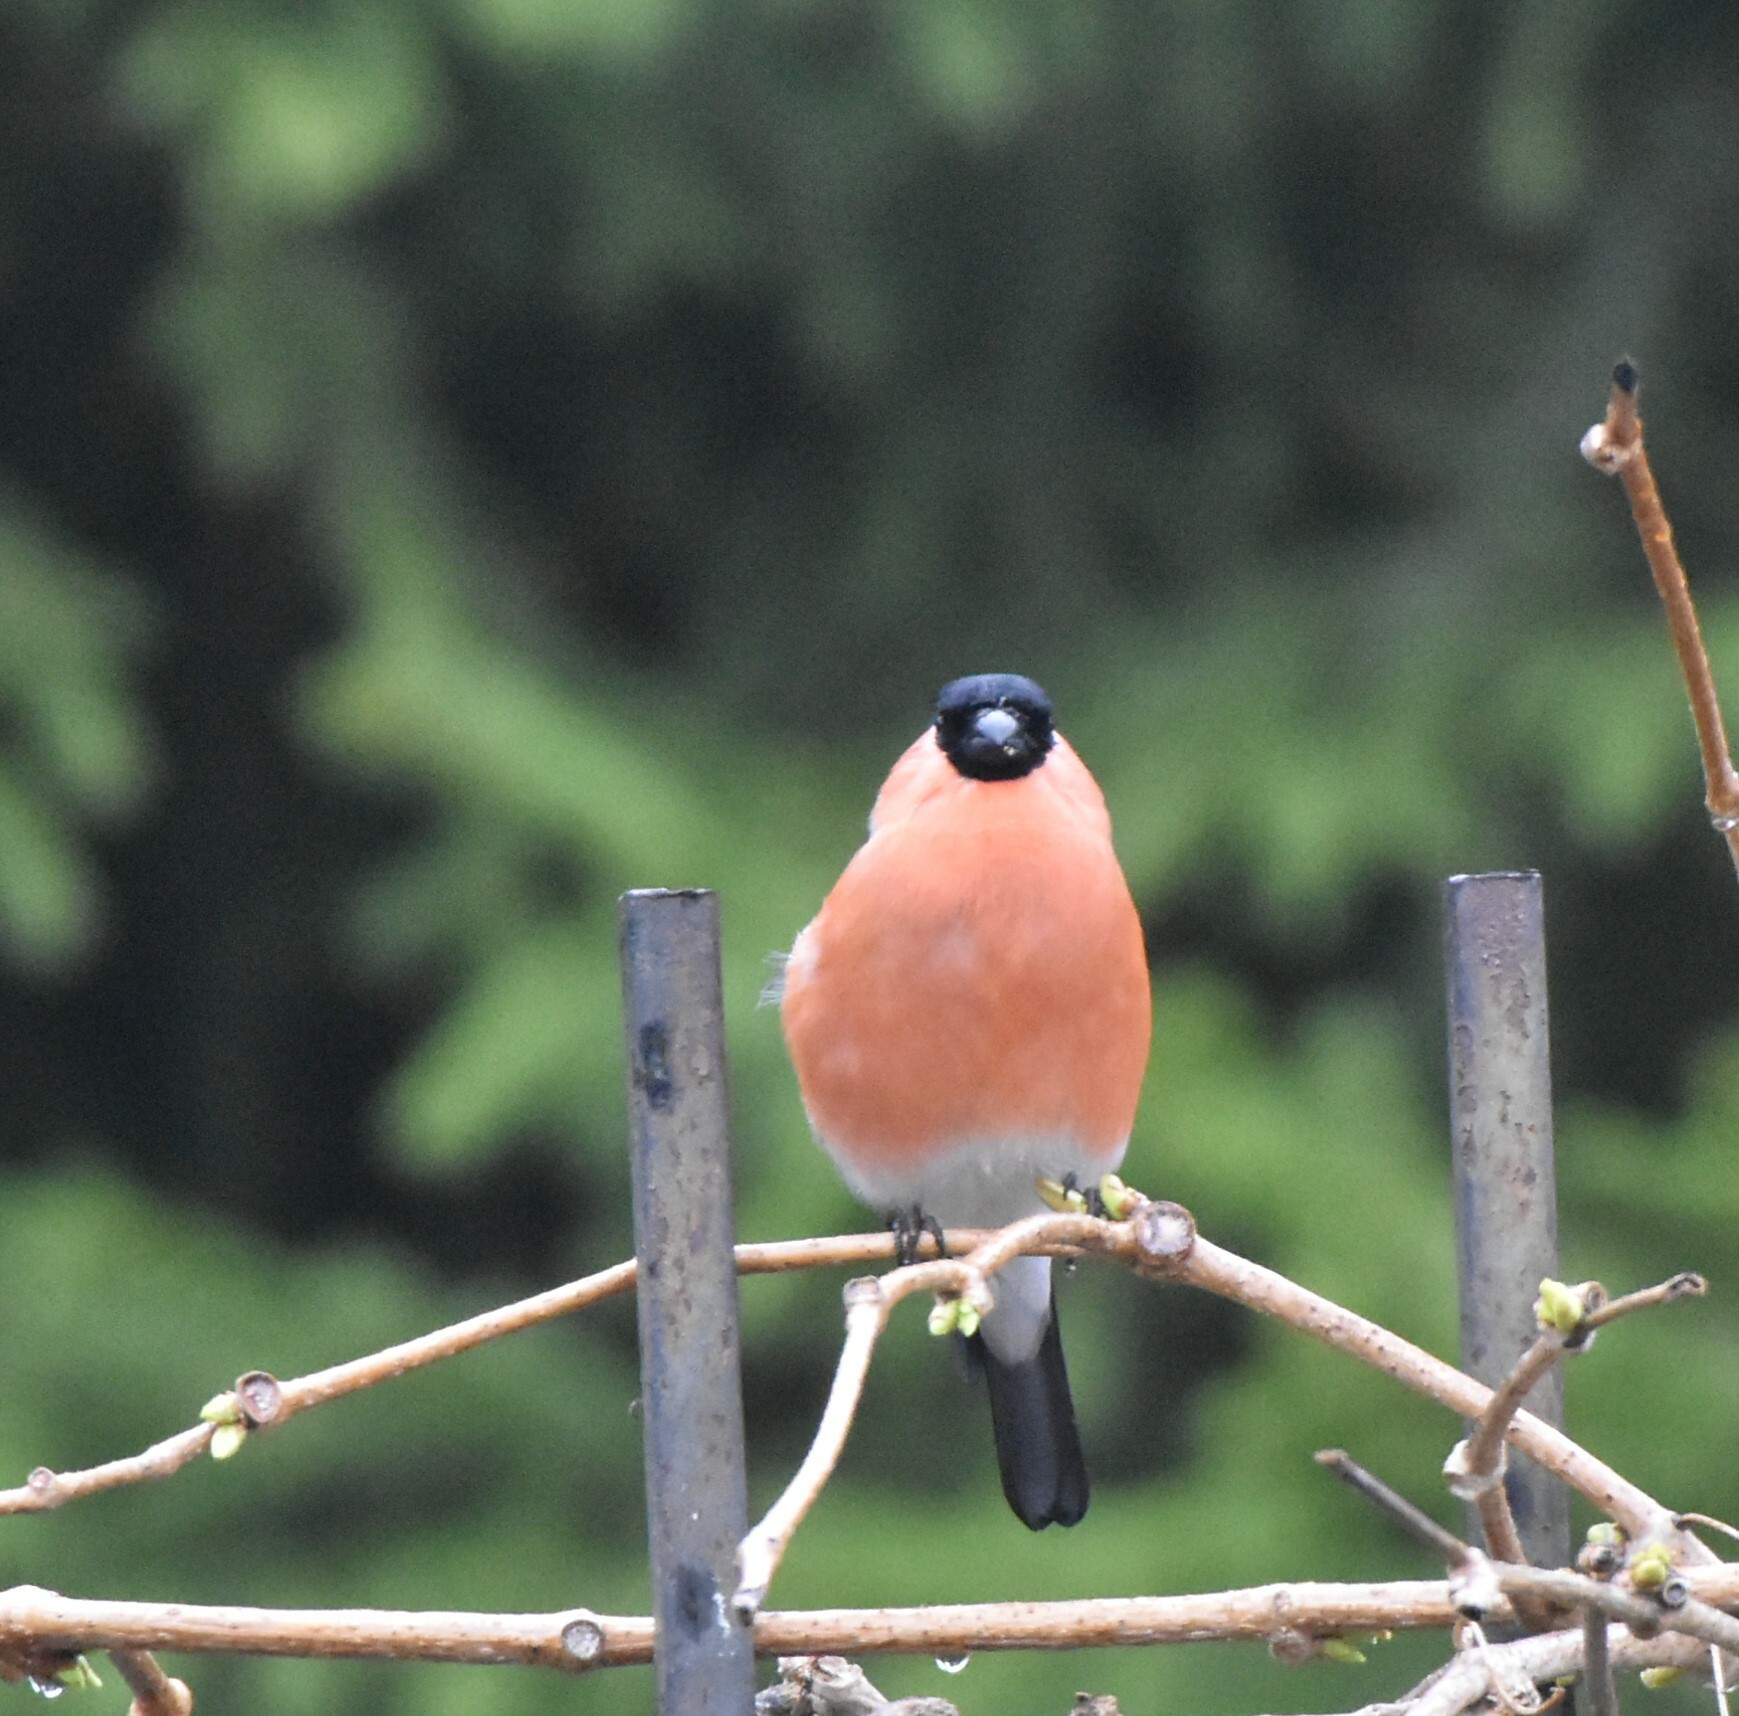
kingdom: Animalia
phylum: Chordata
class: Aves
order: Passeriformes
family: Fringillidae
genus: Pyrrhula
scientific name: Pyrrhula pyrrhula
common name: Eurasian bullfinch
